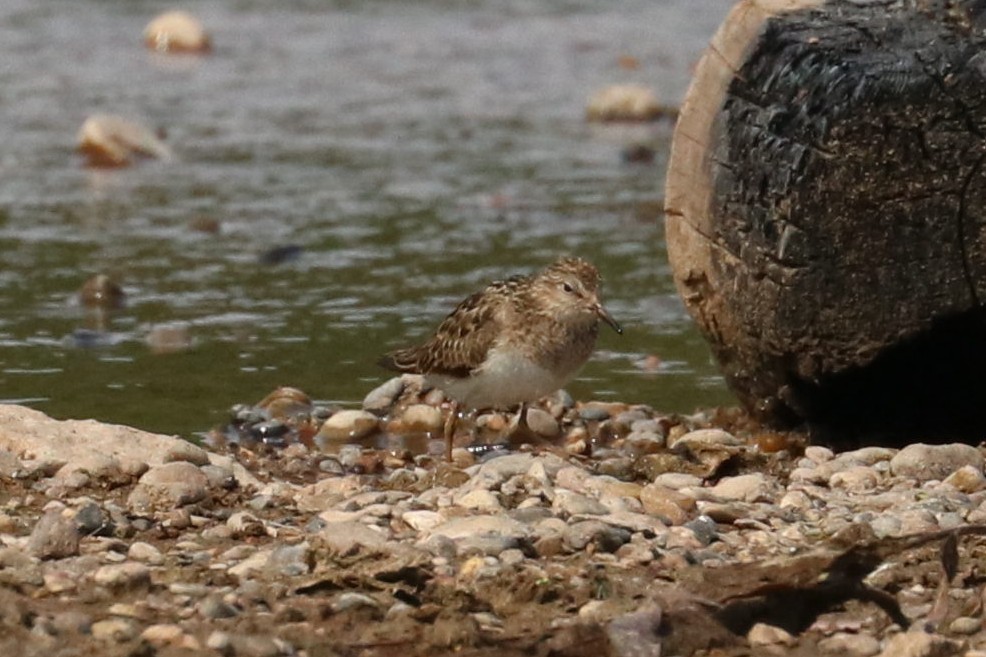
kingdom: Animalia
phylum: Chordata
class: Aves
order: Charadriiformes
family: Scolopacidae
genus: Calidris
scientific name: Calidris temminckii
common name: Temminck's stint
